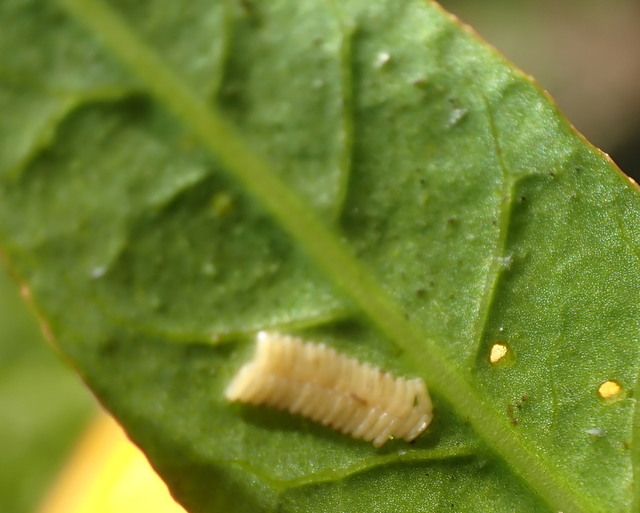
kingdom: Animalia
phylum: Arthropoda
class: Insecta
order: Coleoptera
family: Chrysomelidae
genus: Agasicles
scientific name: Agasicles hygrophila
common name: Alligatorweed flea beetle
